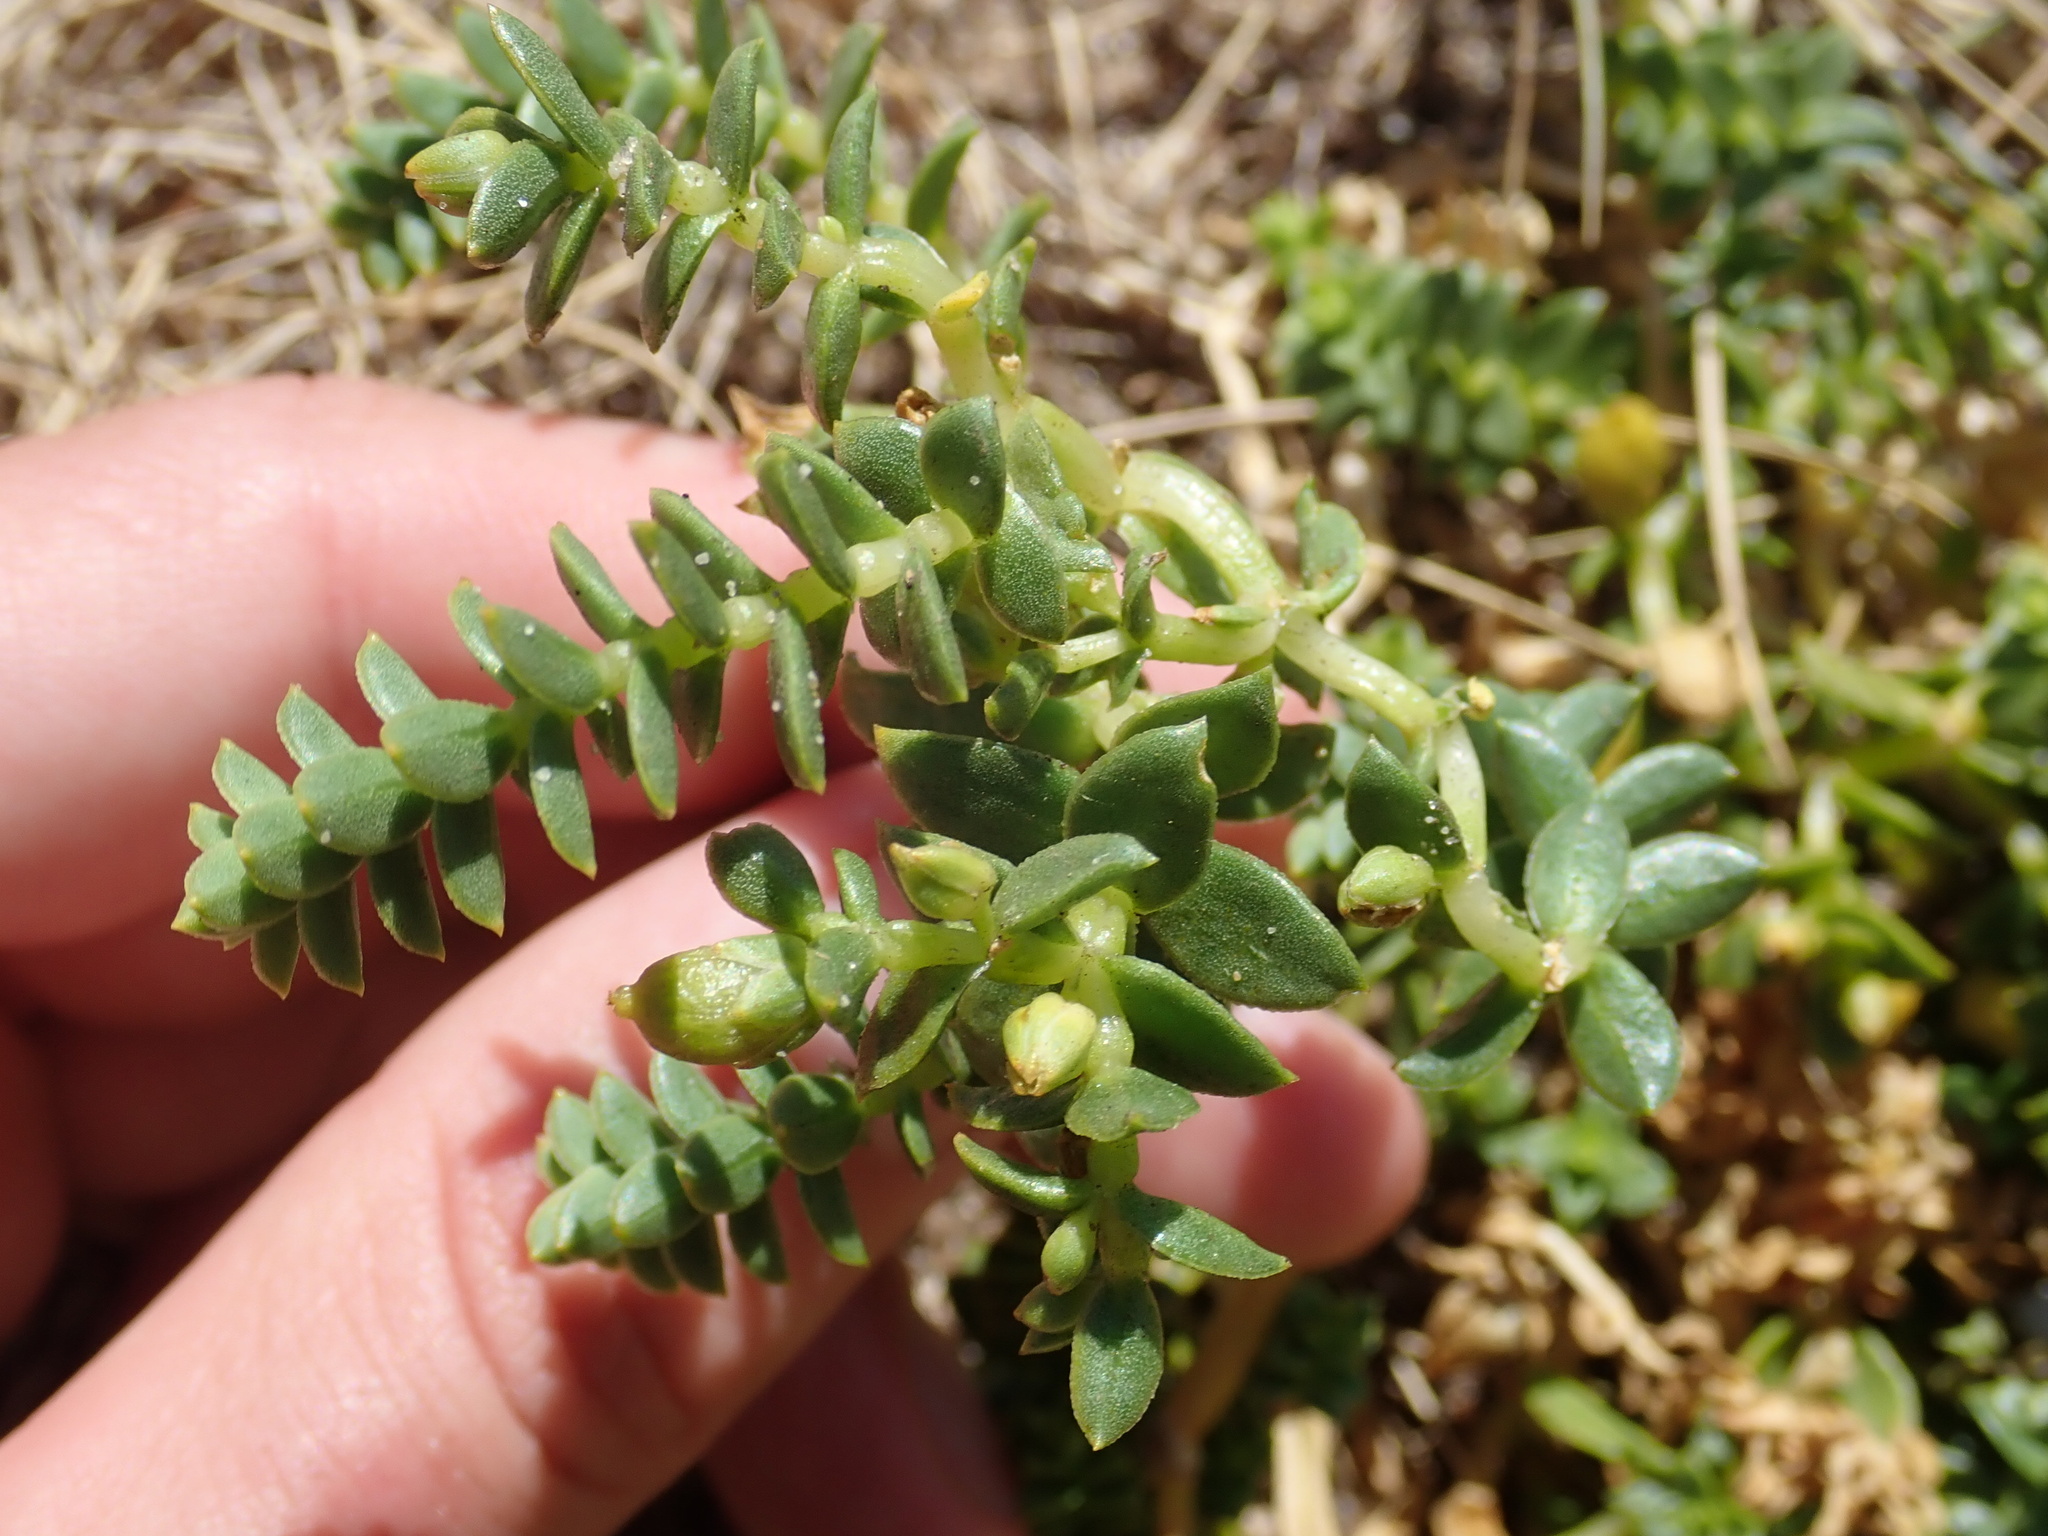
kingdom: Plantae
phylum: Tracheophyta
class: Magnoliopsida
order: Caryophyllales
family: Caryophyllaceae
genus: Honckenya
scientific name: Honckenya peploides
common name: Sea sandwort
